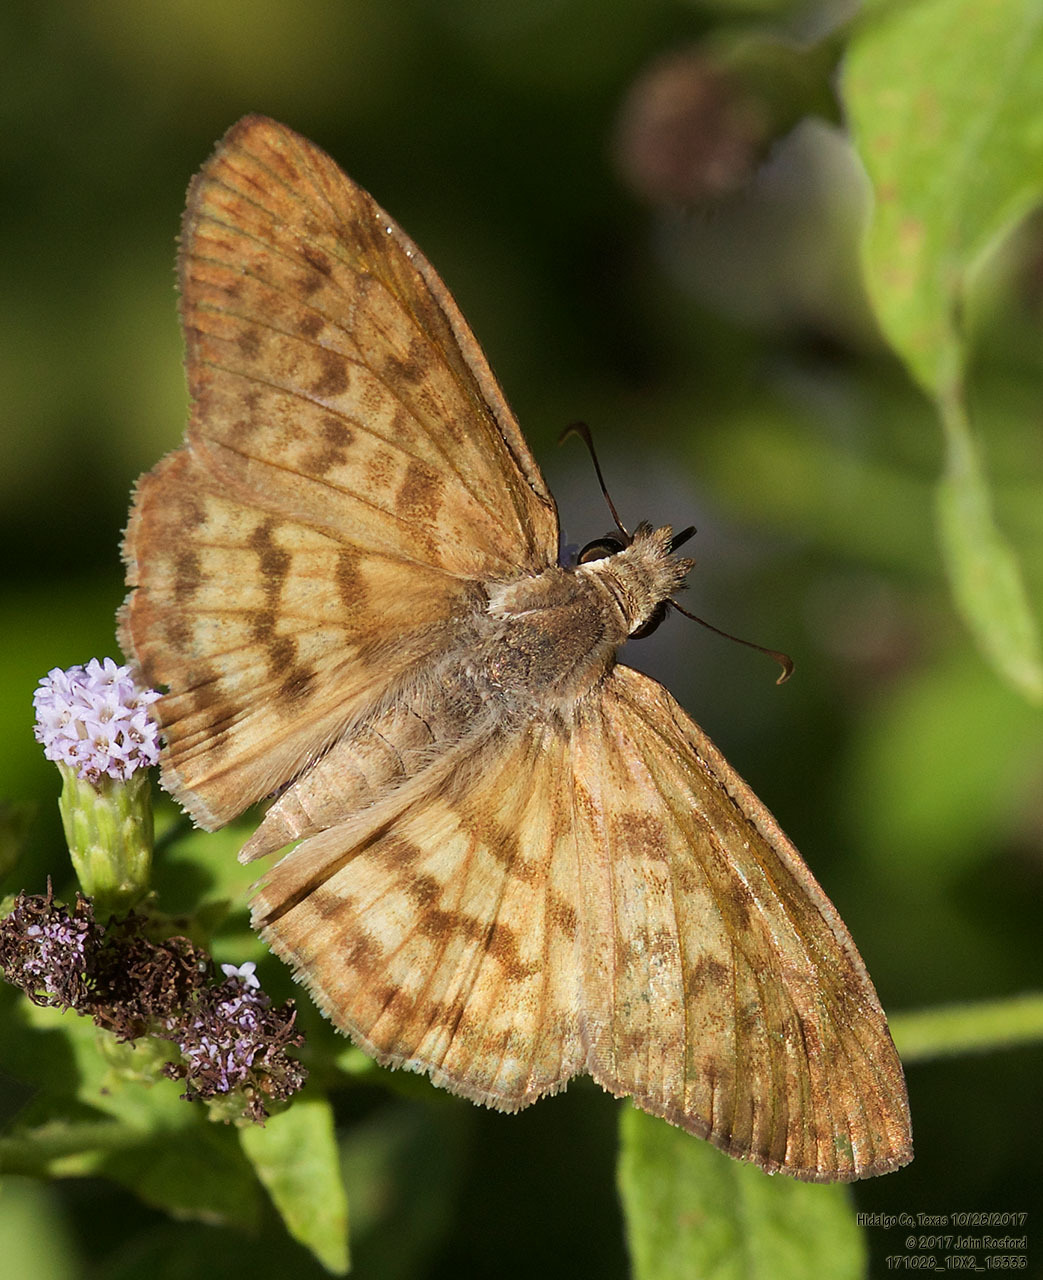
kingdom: Animalia
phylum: Arthropoda
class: Insecta
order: Lepidoptera
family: Hesperiidae
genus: Timochares
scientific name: Timochares ruptifasciata
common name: Brown-banded skipper
